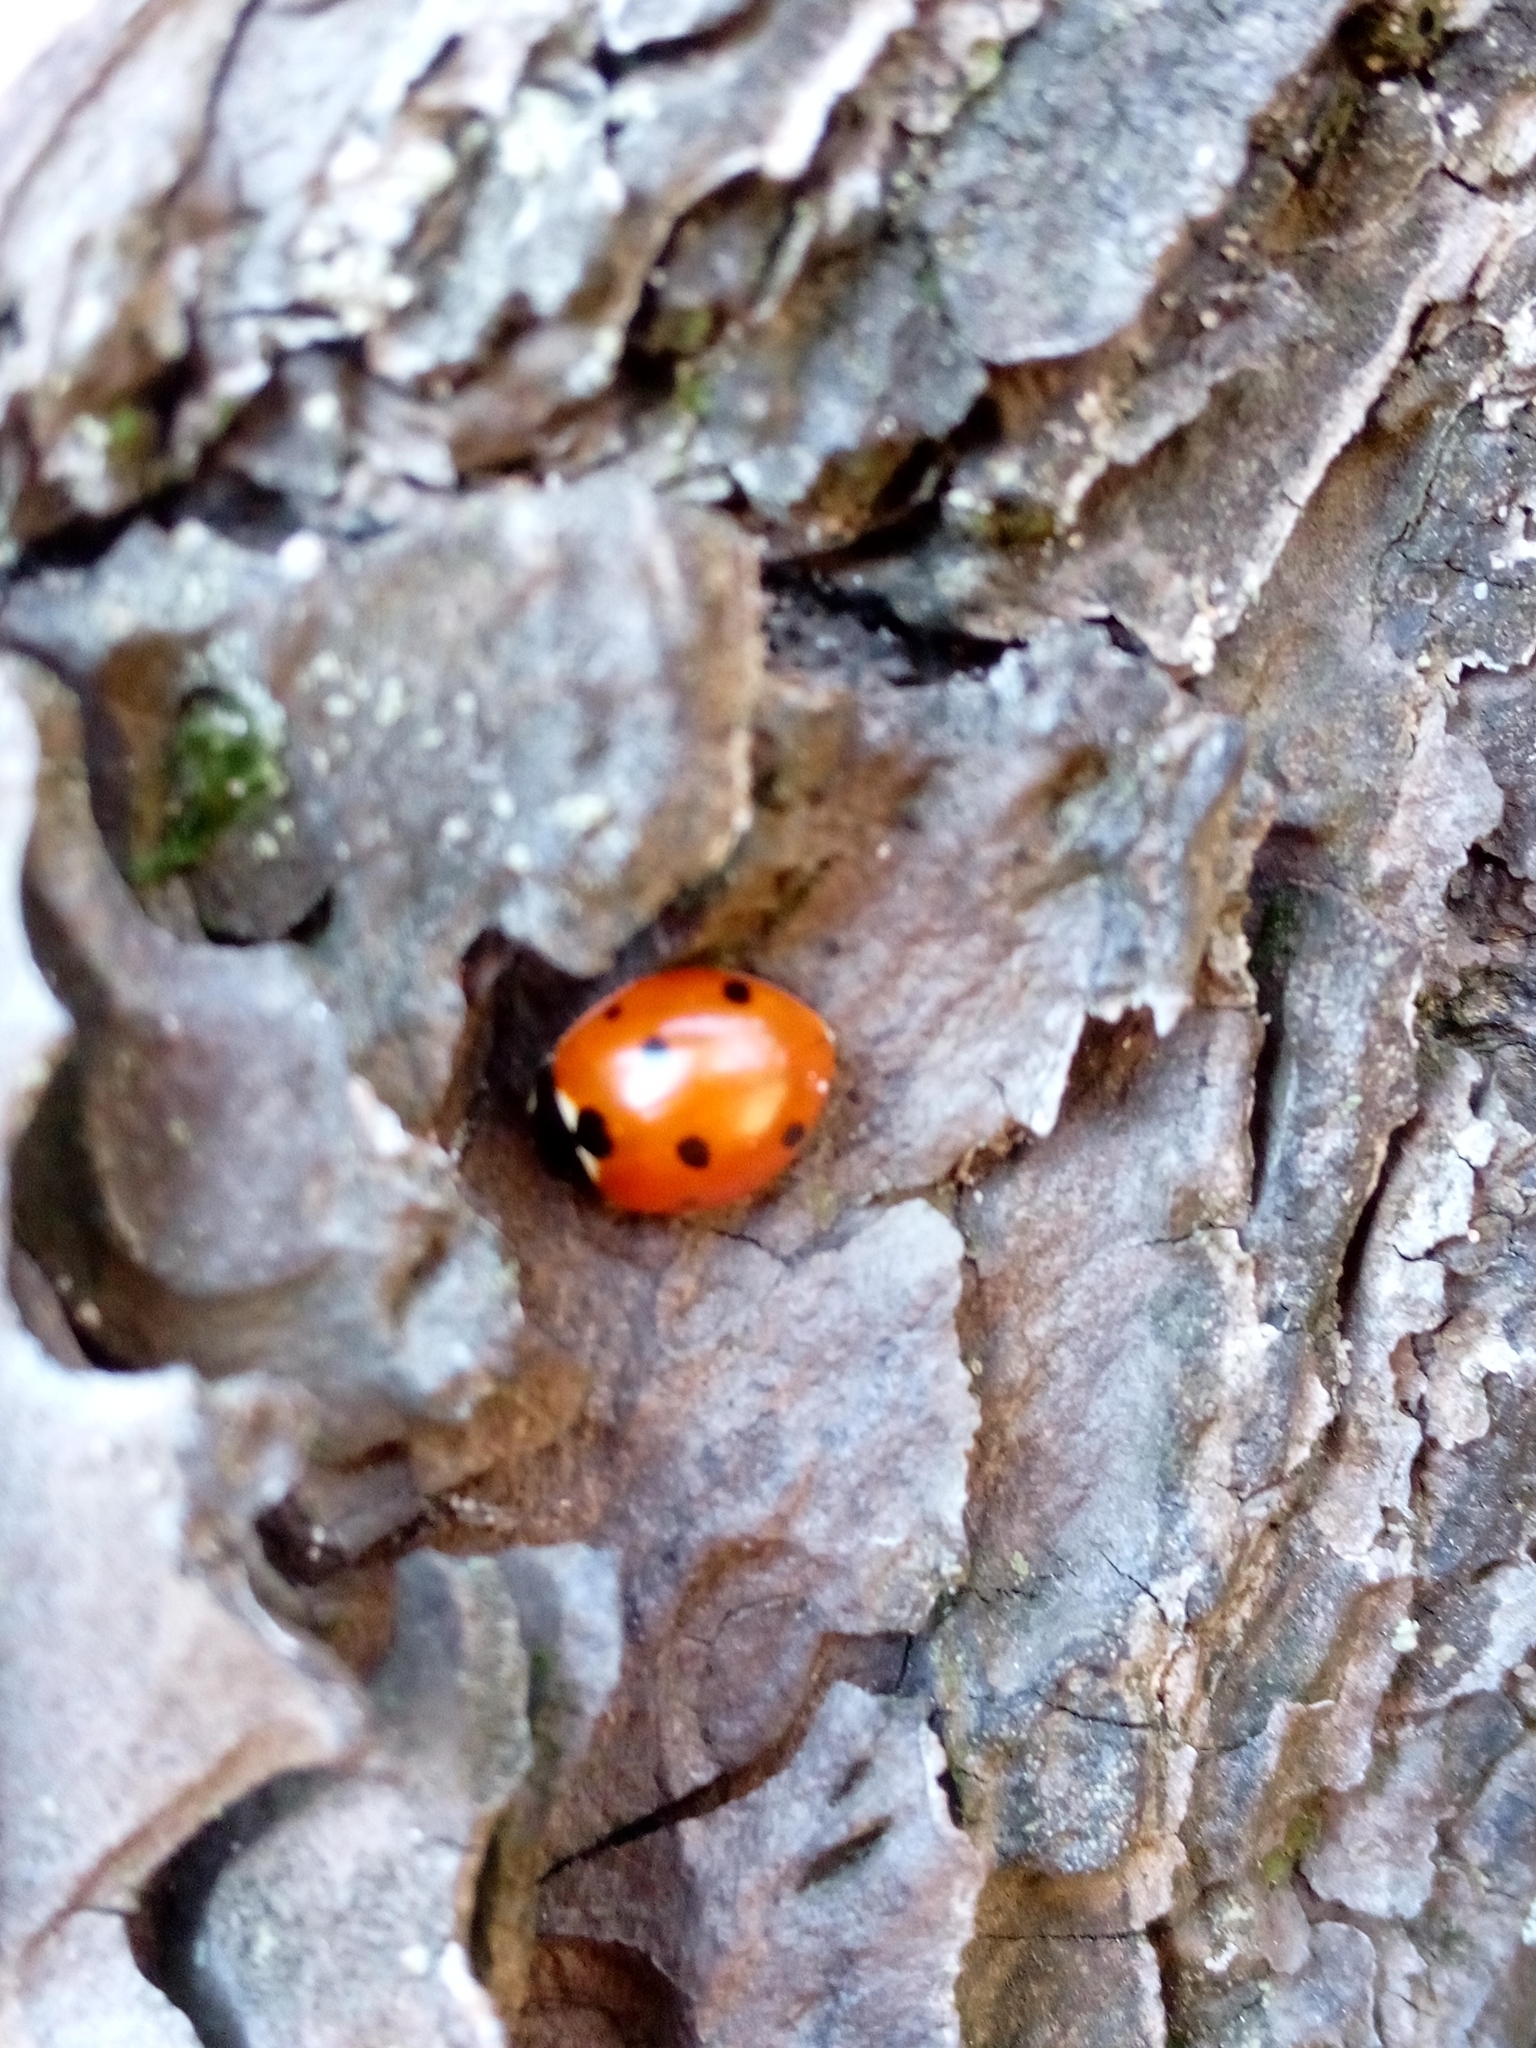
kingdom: Animalia
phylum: Arthropoda
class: Insecta
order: Coleoptera
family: Coccinellidae
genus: Coccinella
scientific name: Coccinella septempunctata
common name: Sevenspotted lady beetle
